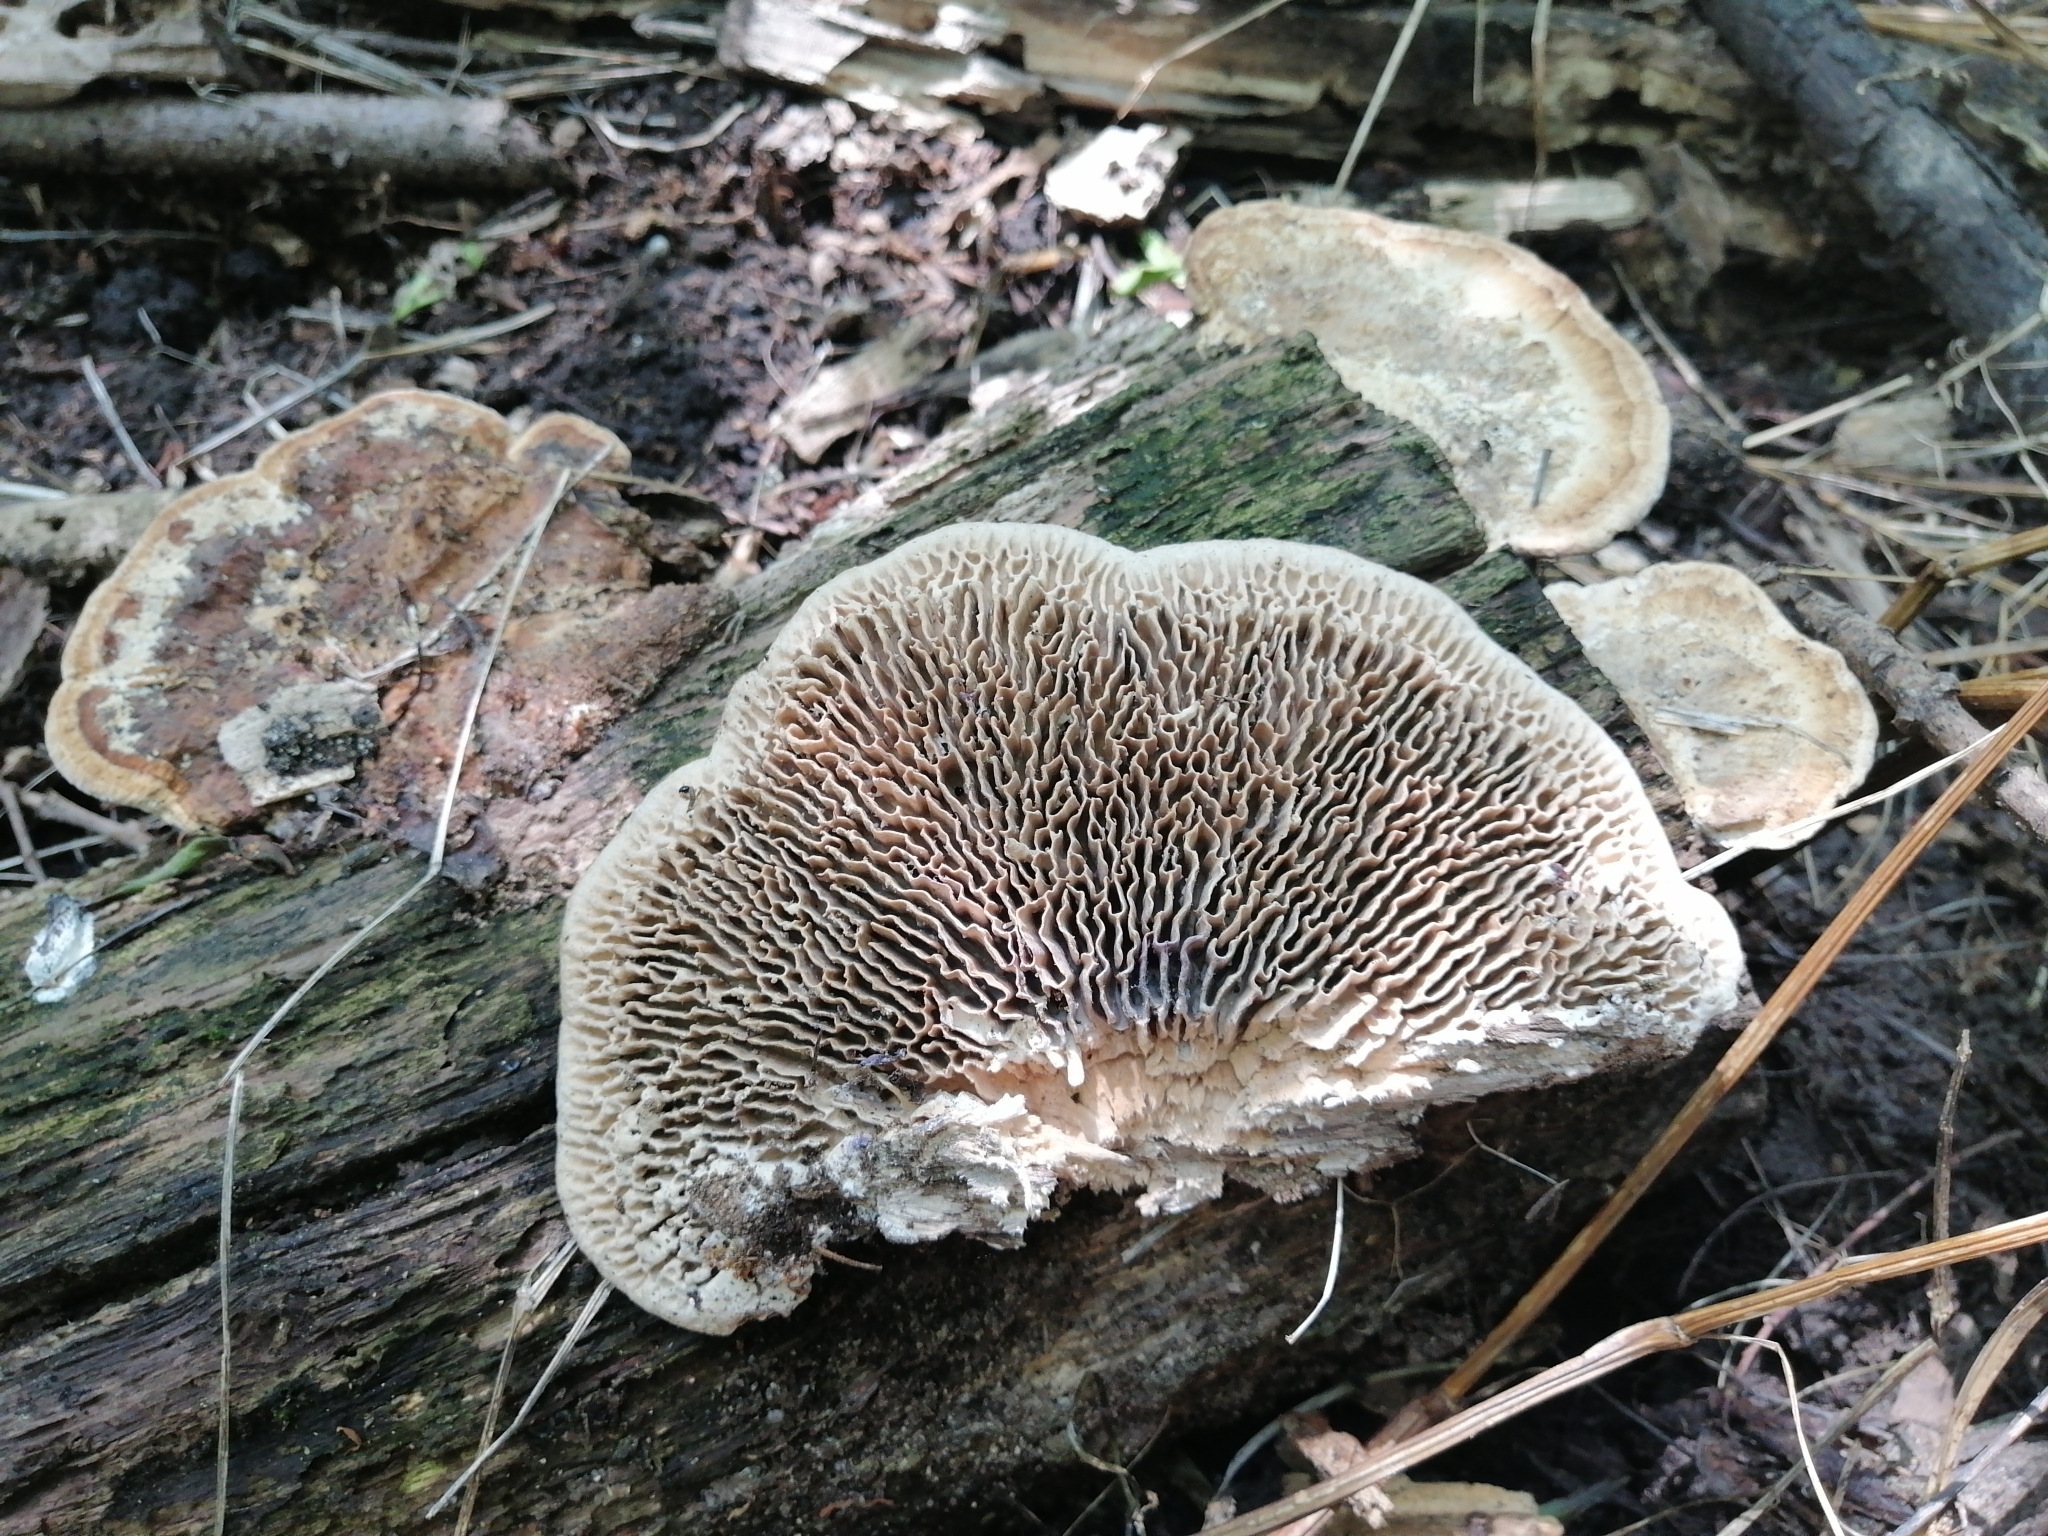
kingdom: Fungi
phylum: Basidiomycota
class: Agaricomycetes
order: Polyporales
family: Fomitopsidaceae
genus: Fomitopsis
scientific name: Fomitopsis
